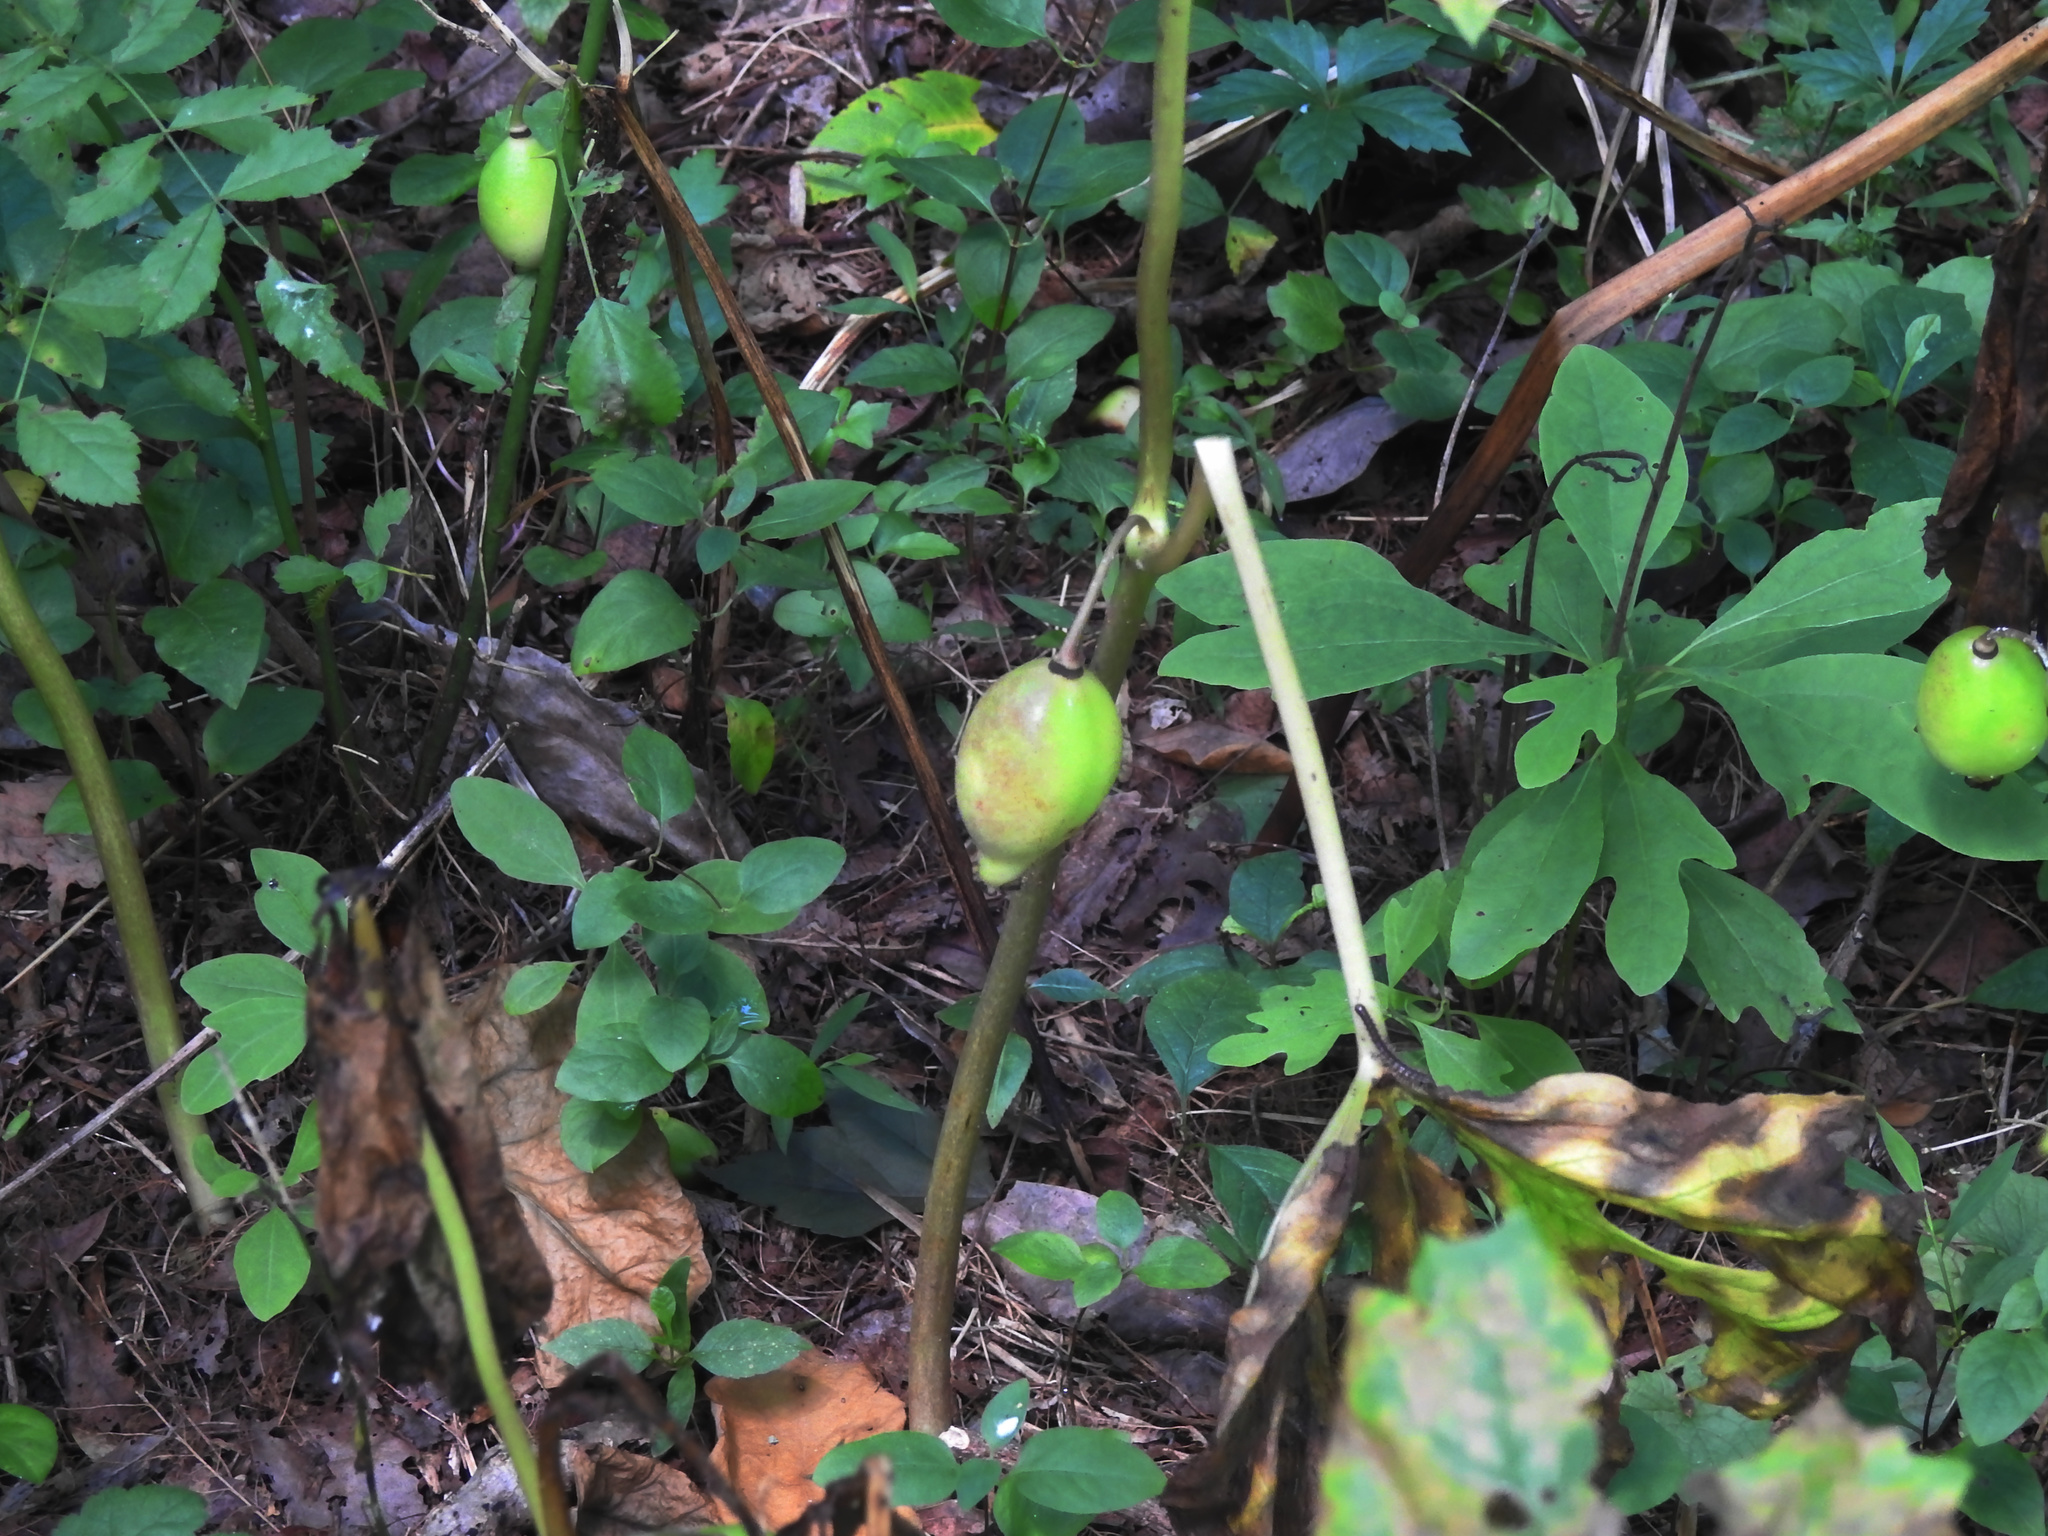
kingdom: Plantae
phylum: Tracheophyta
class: Magnoliopsida
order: Ranunculales
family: Berberidaceae
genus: Podophyllum
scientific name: Podophyllum peltatum
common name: Wild mandrake
